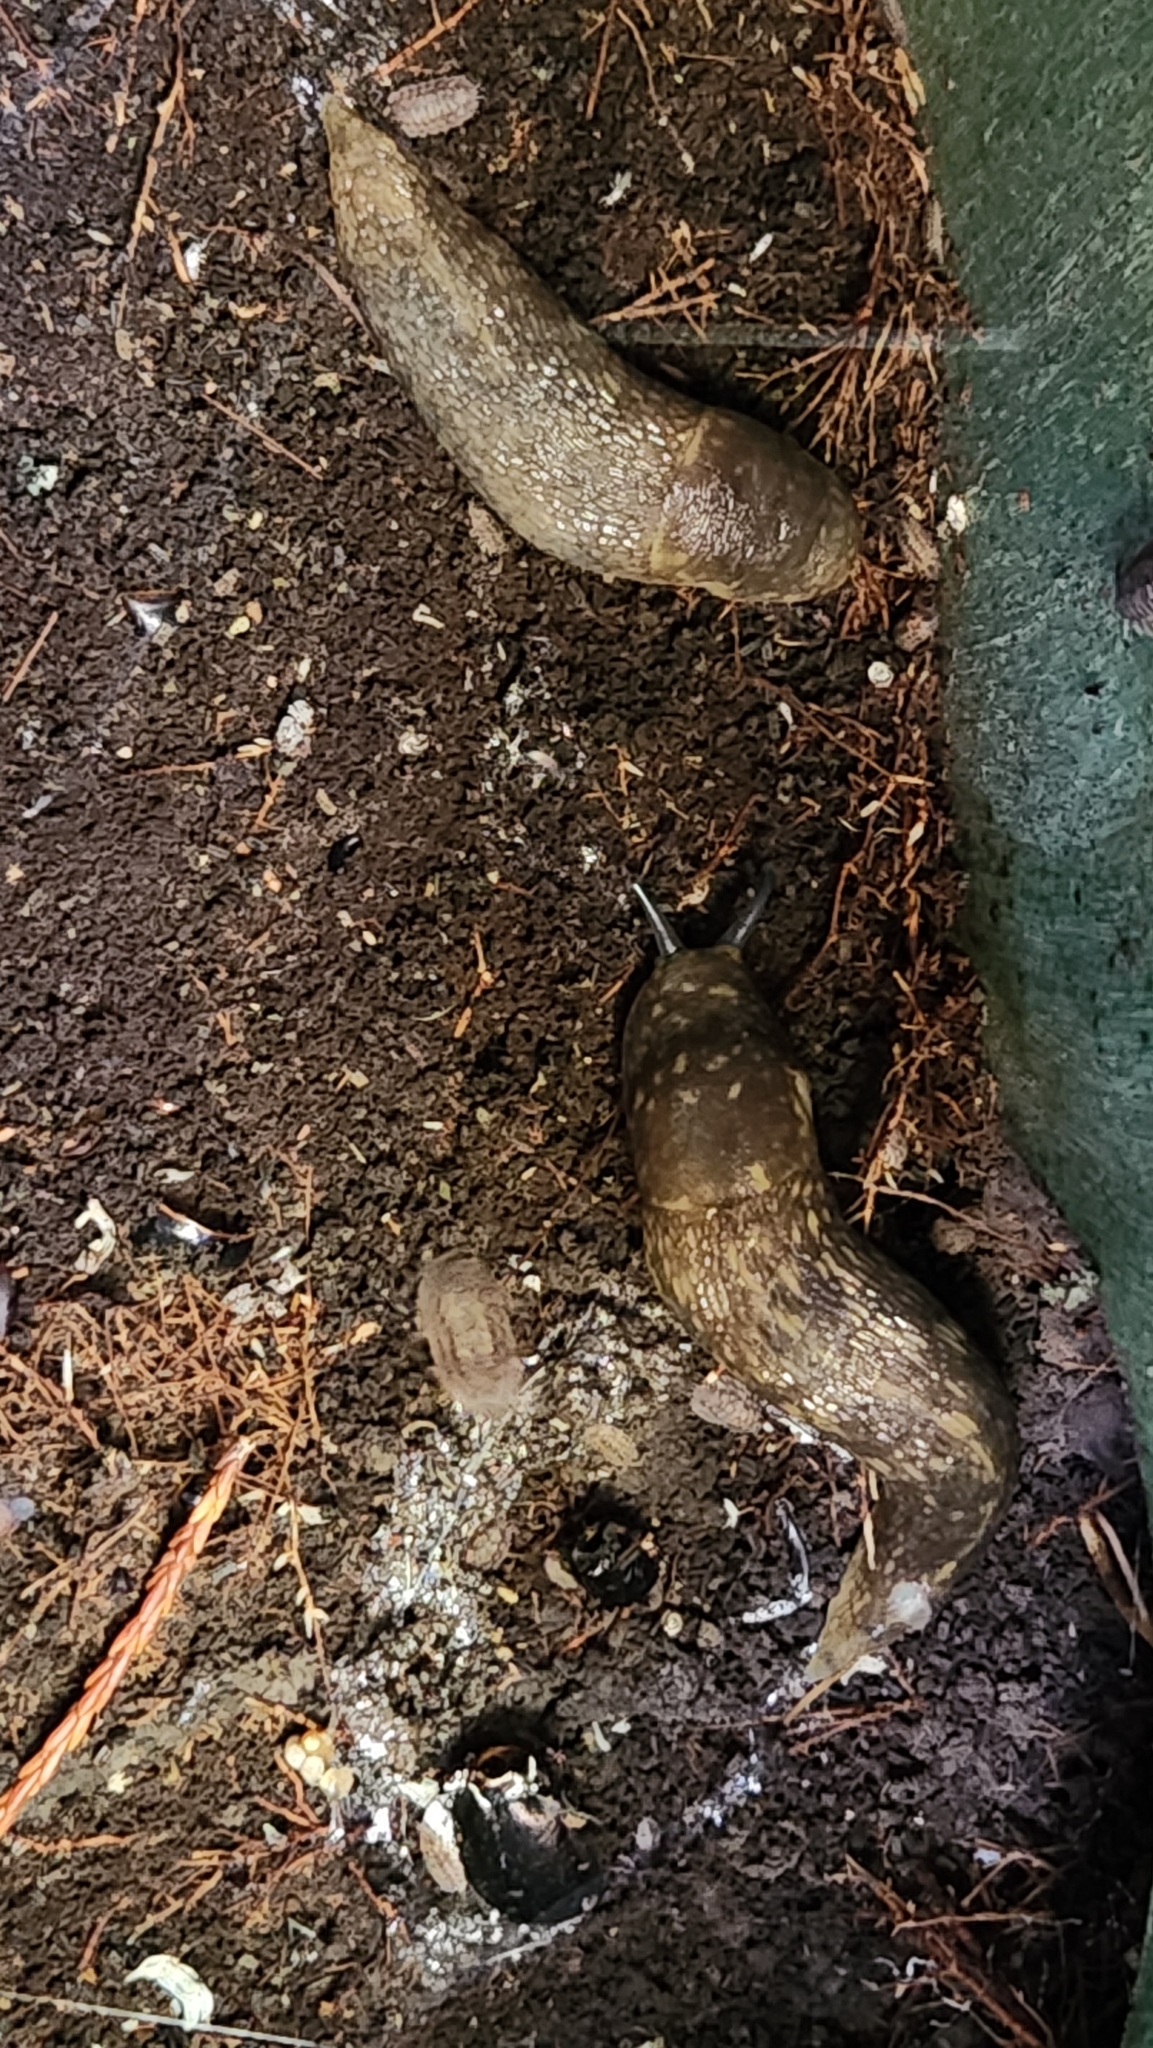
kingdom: Animalia
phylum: Mollusca
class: Gastropoda
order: Stylommatophora
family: Limacidae
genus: Limacus
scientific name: Limacus flavus
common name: Yellow gardenslug
